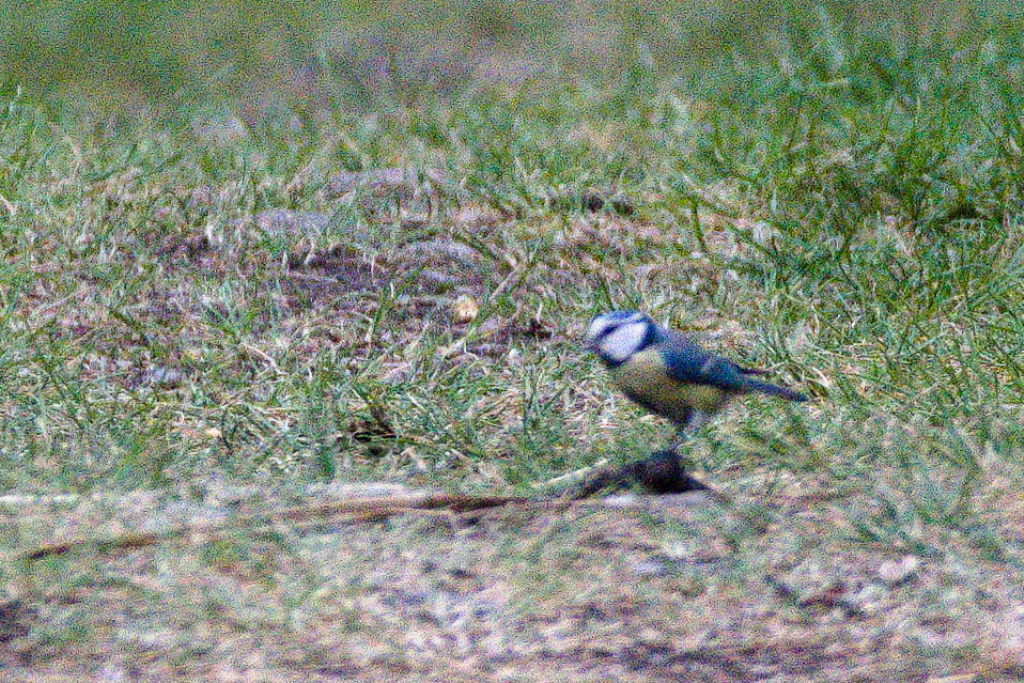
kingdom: Animalia
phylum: Chordata
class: Aves
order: Passeriformes
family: Paridae
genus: Cyanistes
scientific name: Cyanistes caeruleus
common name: Eurasian blue tit
